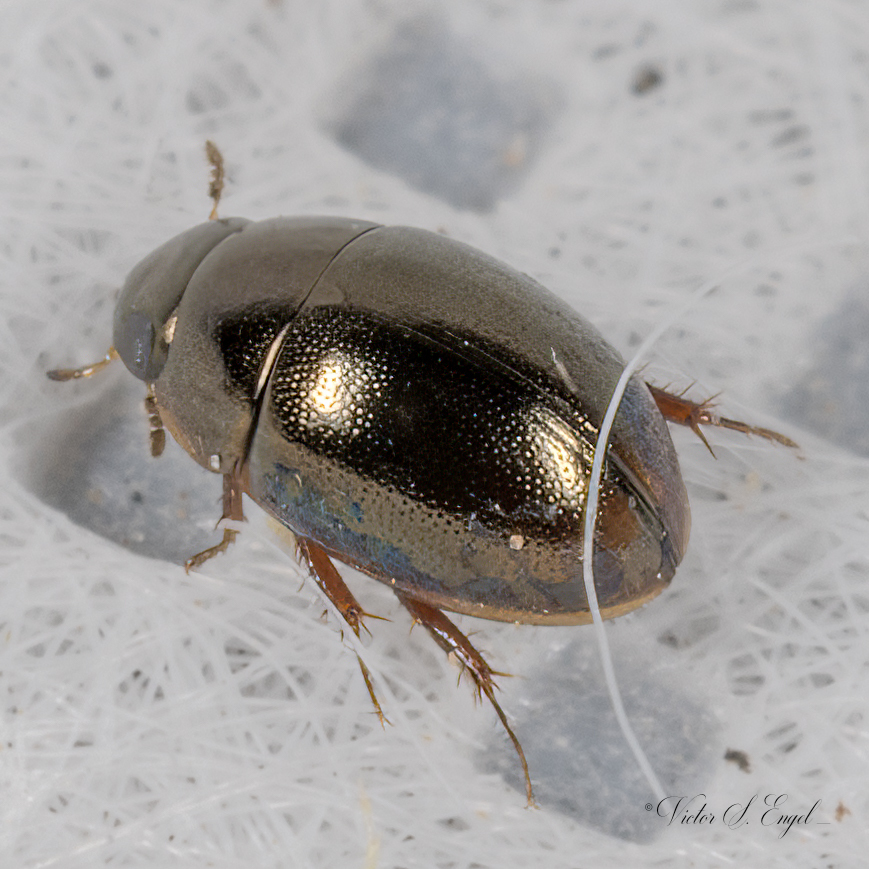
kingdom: Animalia
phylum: Arthropoda
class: Insecta
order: Coleoptera
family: Hydrophilidae
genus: Paracymus
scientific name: Paracymus
